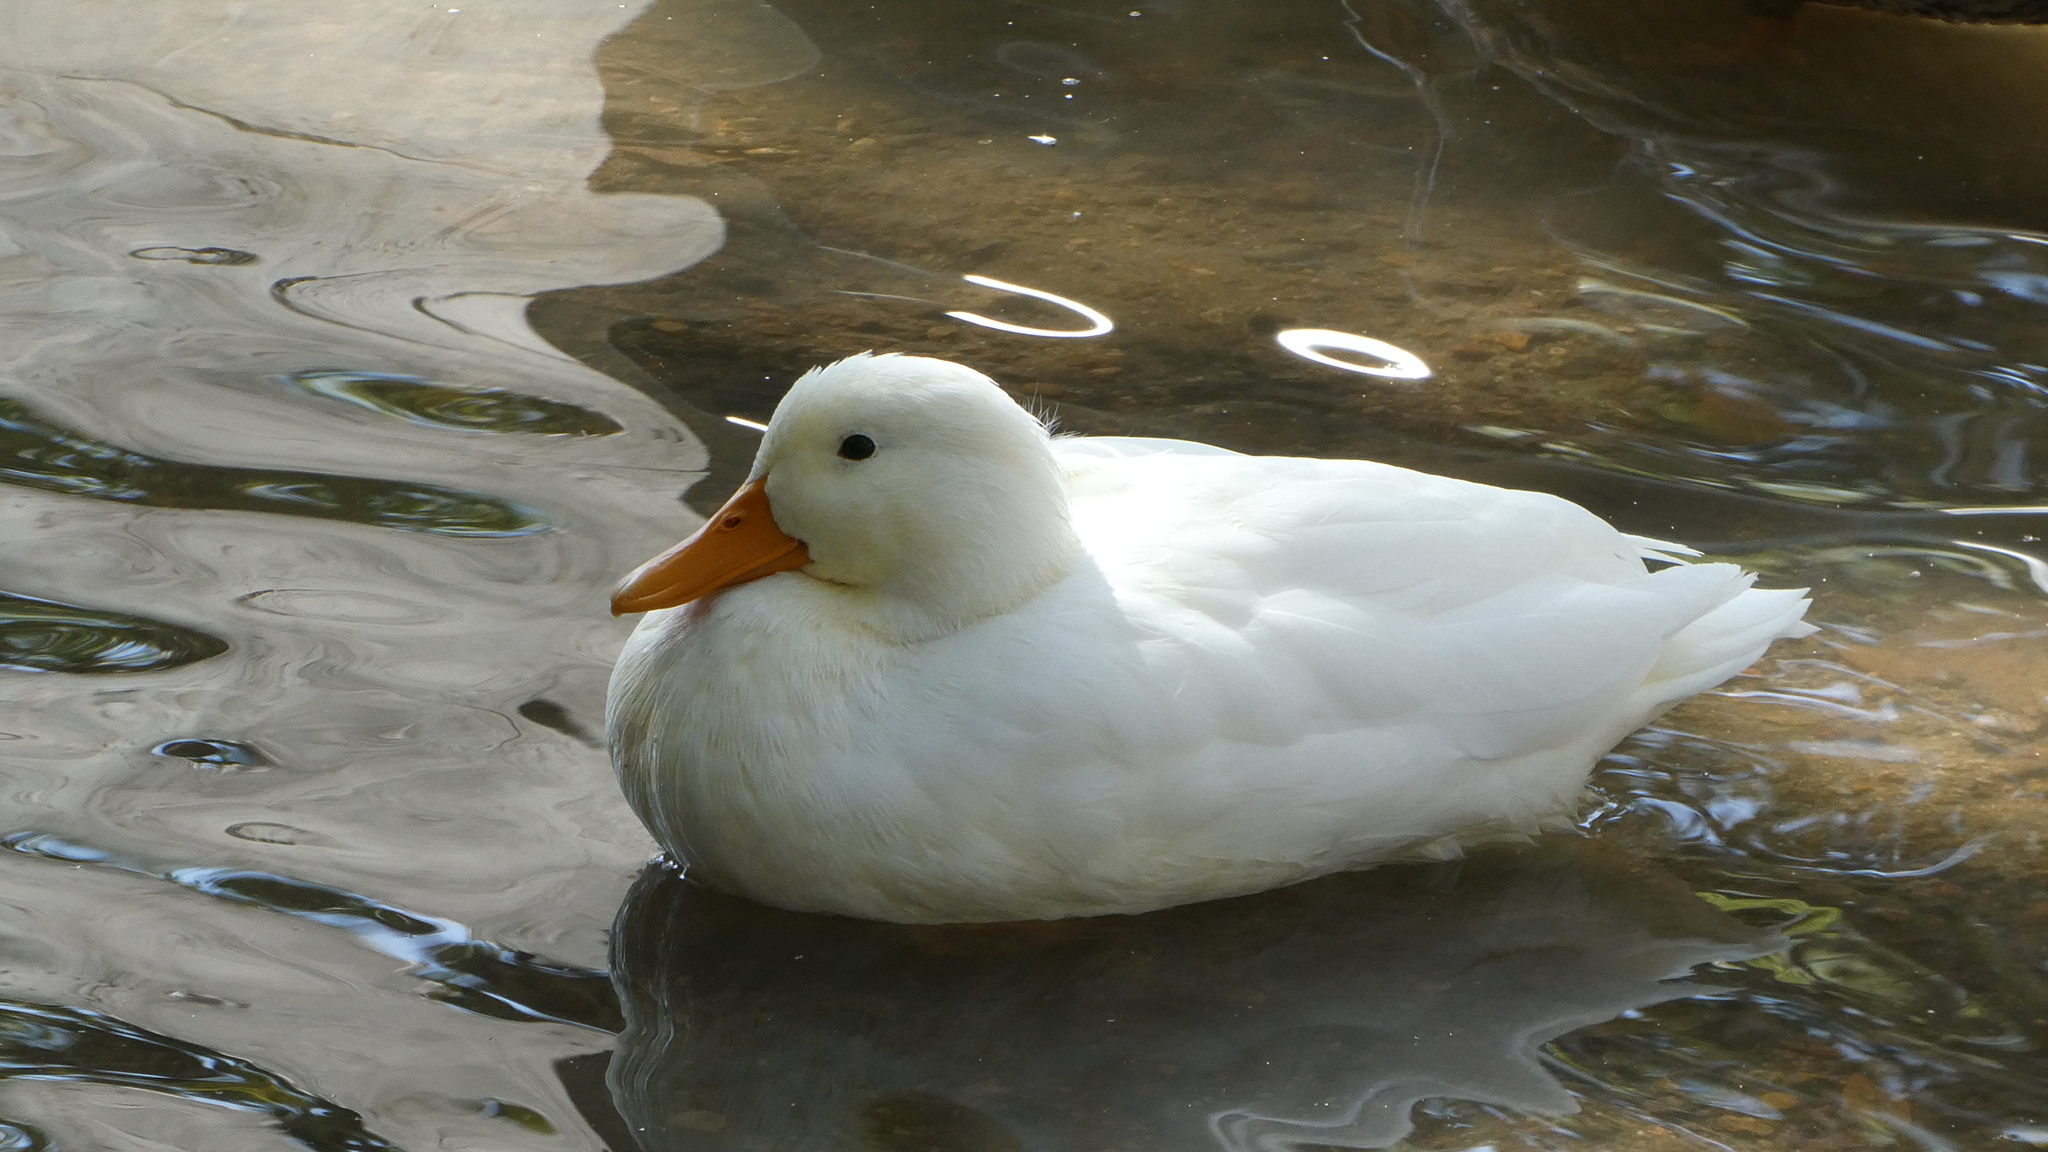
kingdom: Animalia
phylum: Chordata
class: Aves
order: Anseriformes
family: Anatidae
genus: Anas
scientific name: Anas platyrhynchos
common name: Mallard
